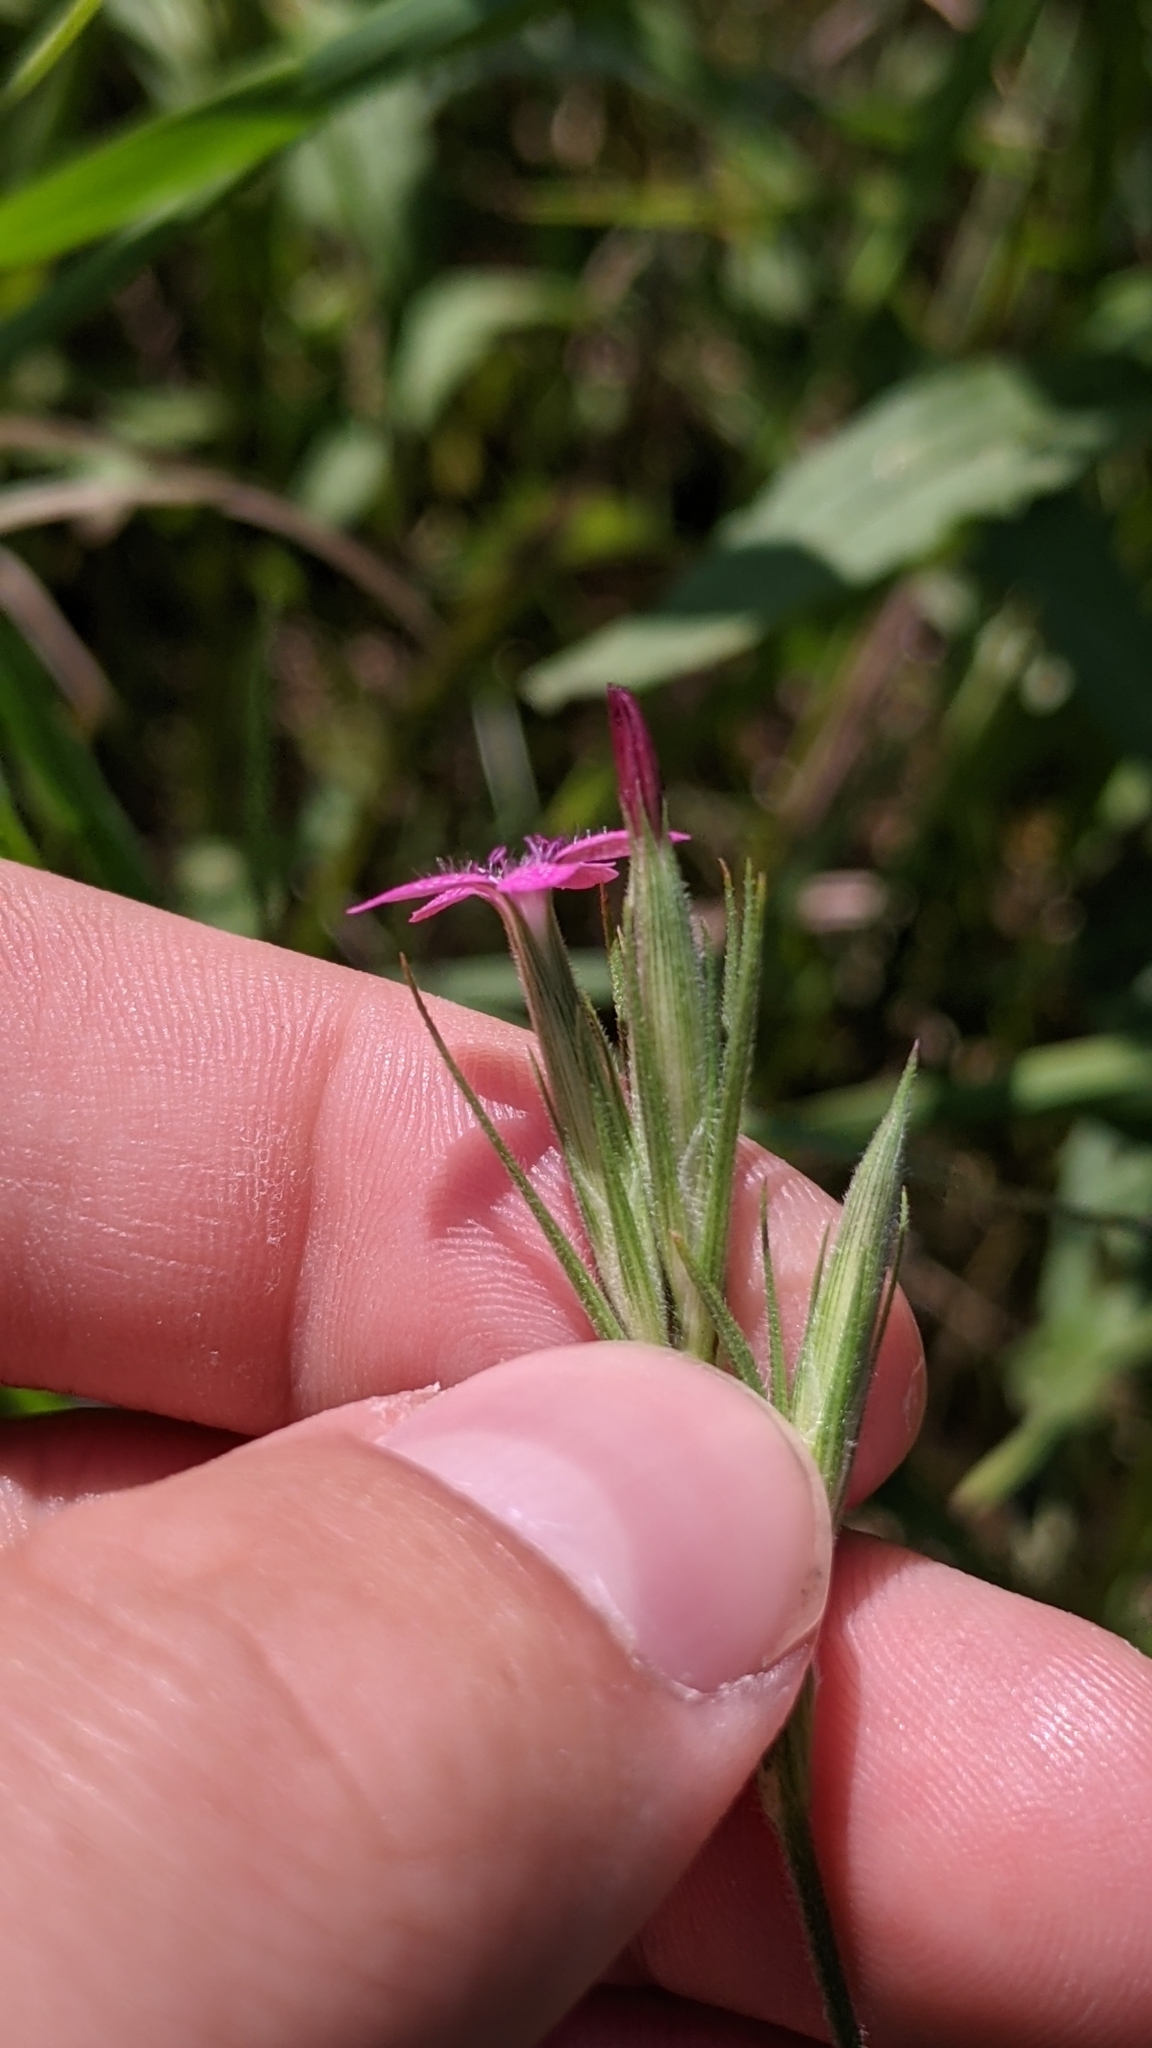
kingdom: Plantae
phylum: Tracheophyta
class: Magnoliopsida
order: Caryophyllales
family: Caryophyllaceae
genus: Dianthus
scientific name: Dianthus armeria
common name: Deptford pink
